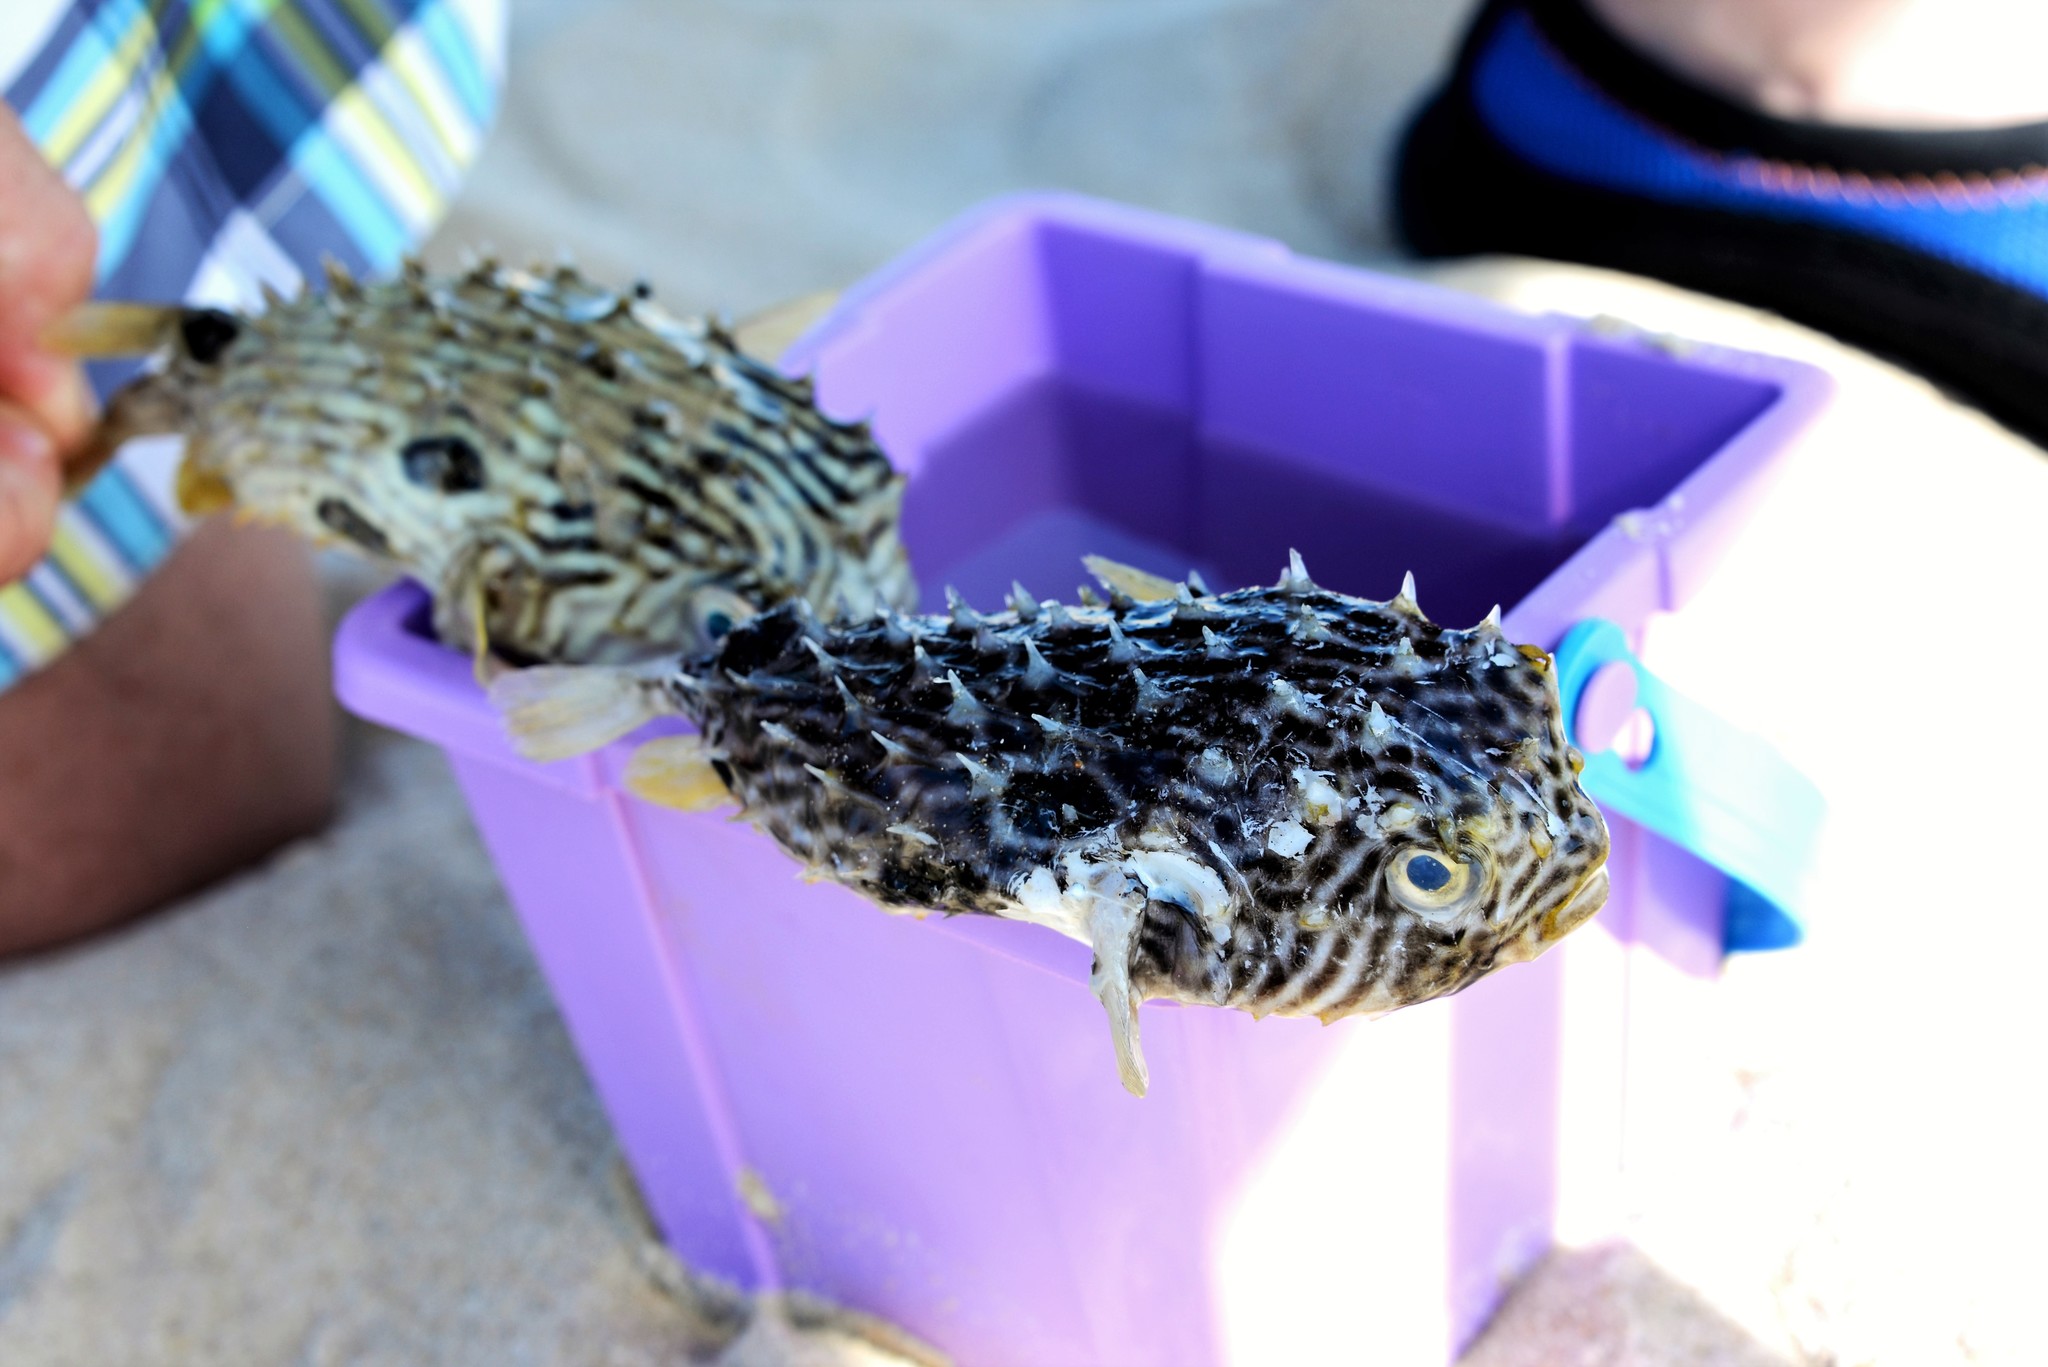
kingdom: Animalia
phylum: Chordata
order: Tetraodontiformes
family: Diodontidae
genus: Chilomycterus
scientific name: Chilomycterus schoepfii
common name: Striped burrfish
